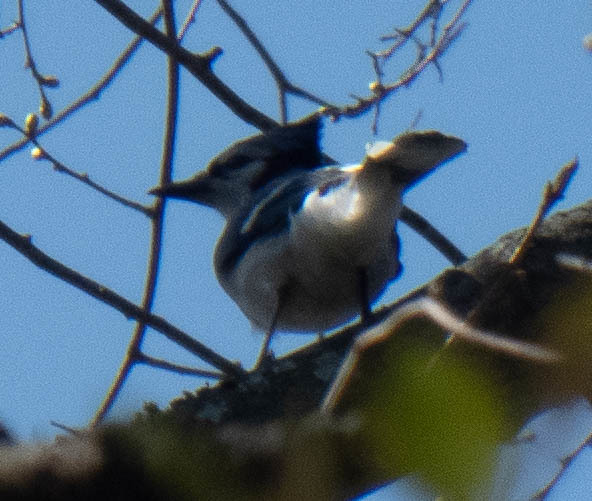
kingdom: Animalia
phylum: Chordata
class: Aves
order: Passeriformes
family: Corvidae
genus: Cyanocitta
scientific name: Cyanocitta cristata
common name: Blue jay
